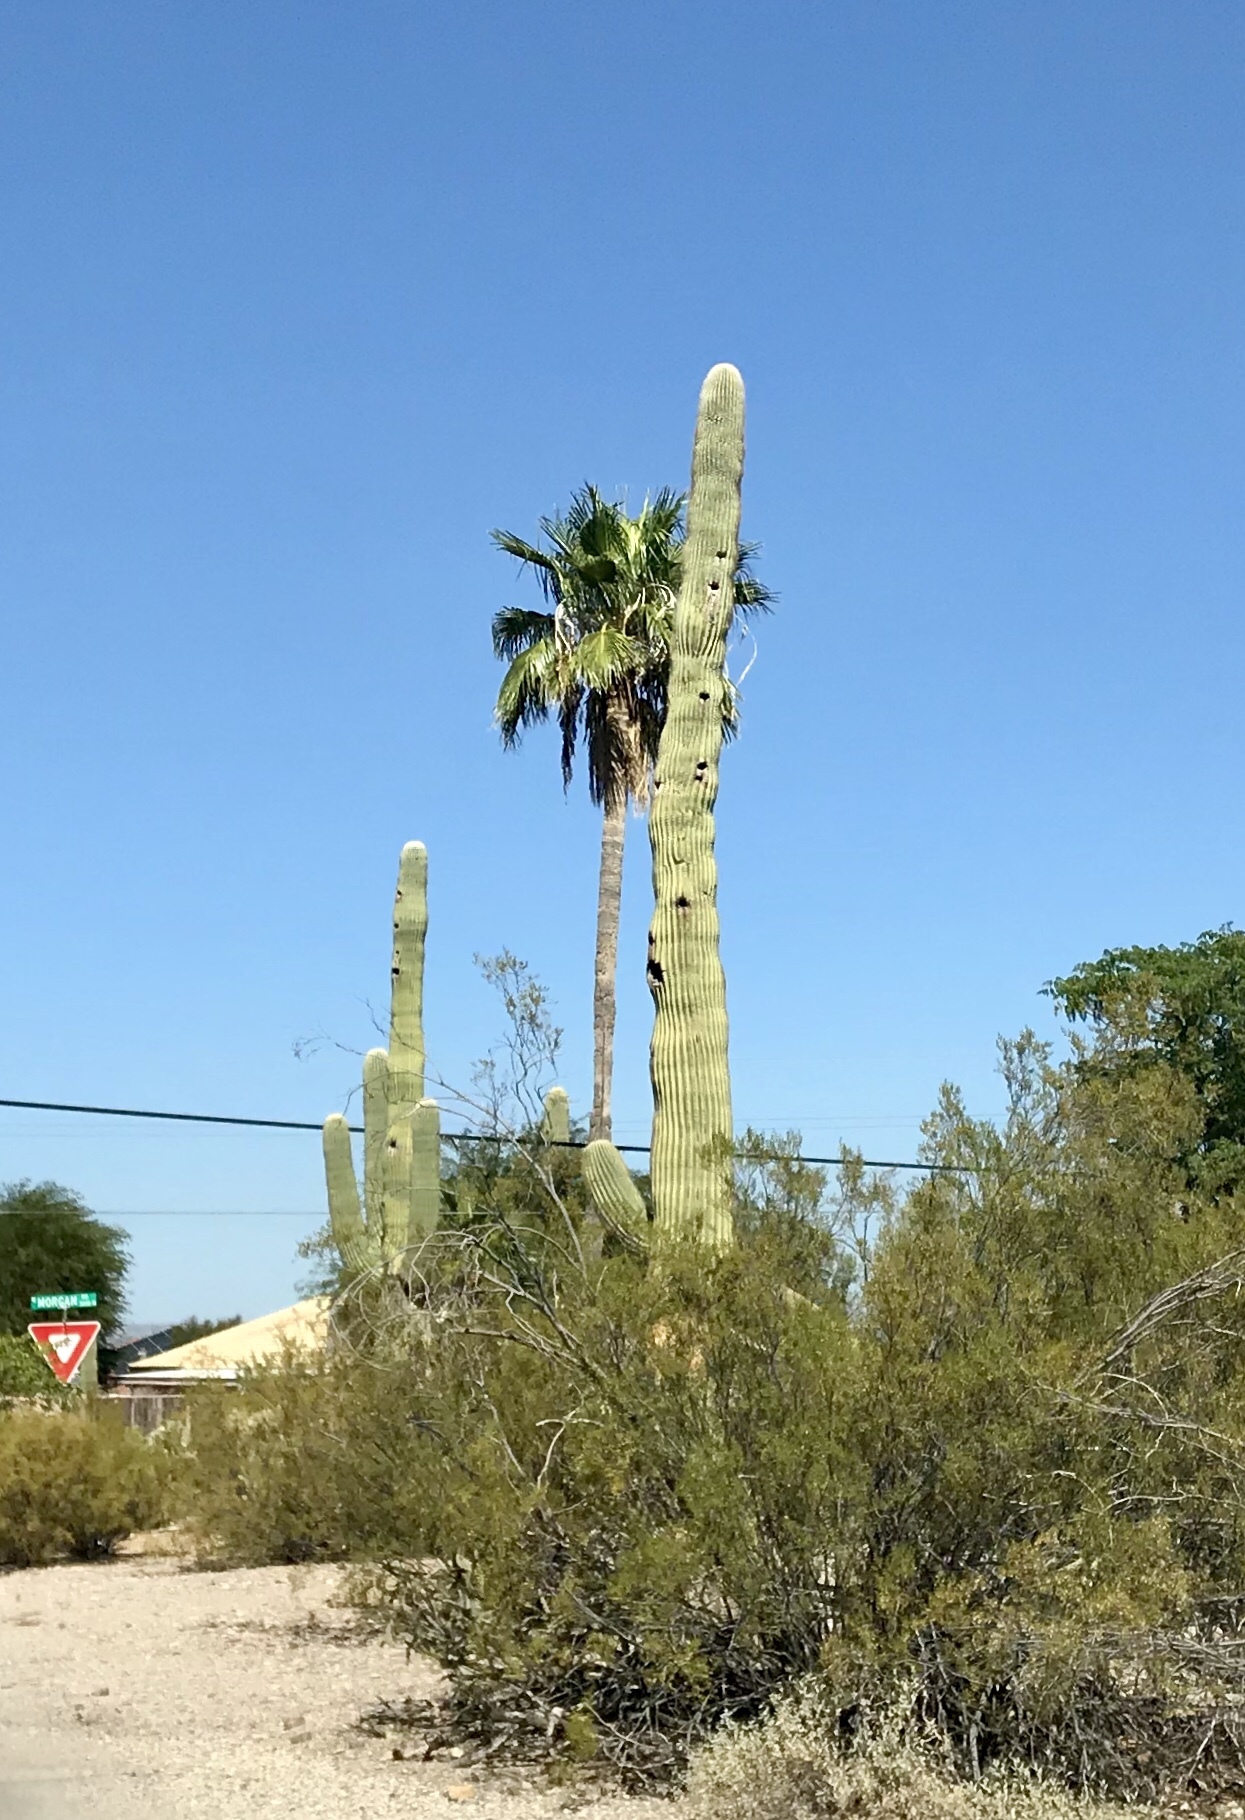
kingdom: Plantae
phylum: Tracheophyta
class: Magnoliopsida
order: Caryophyllales
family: Cactaceae
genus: Carnegiea
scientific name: Carnegiea gigantea
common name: Saguaro
